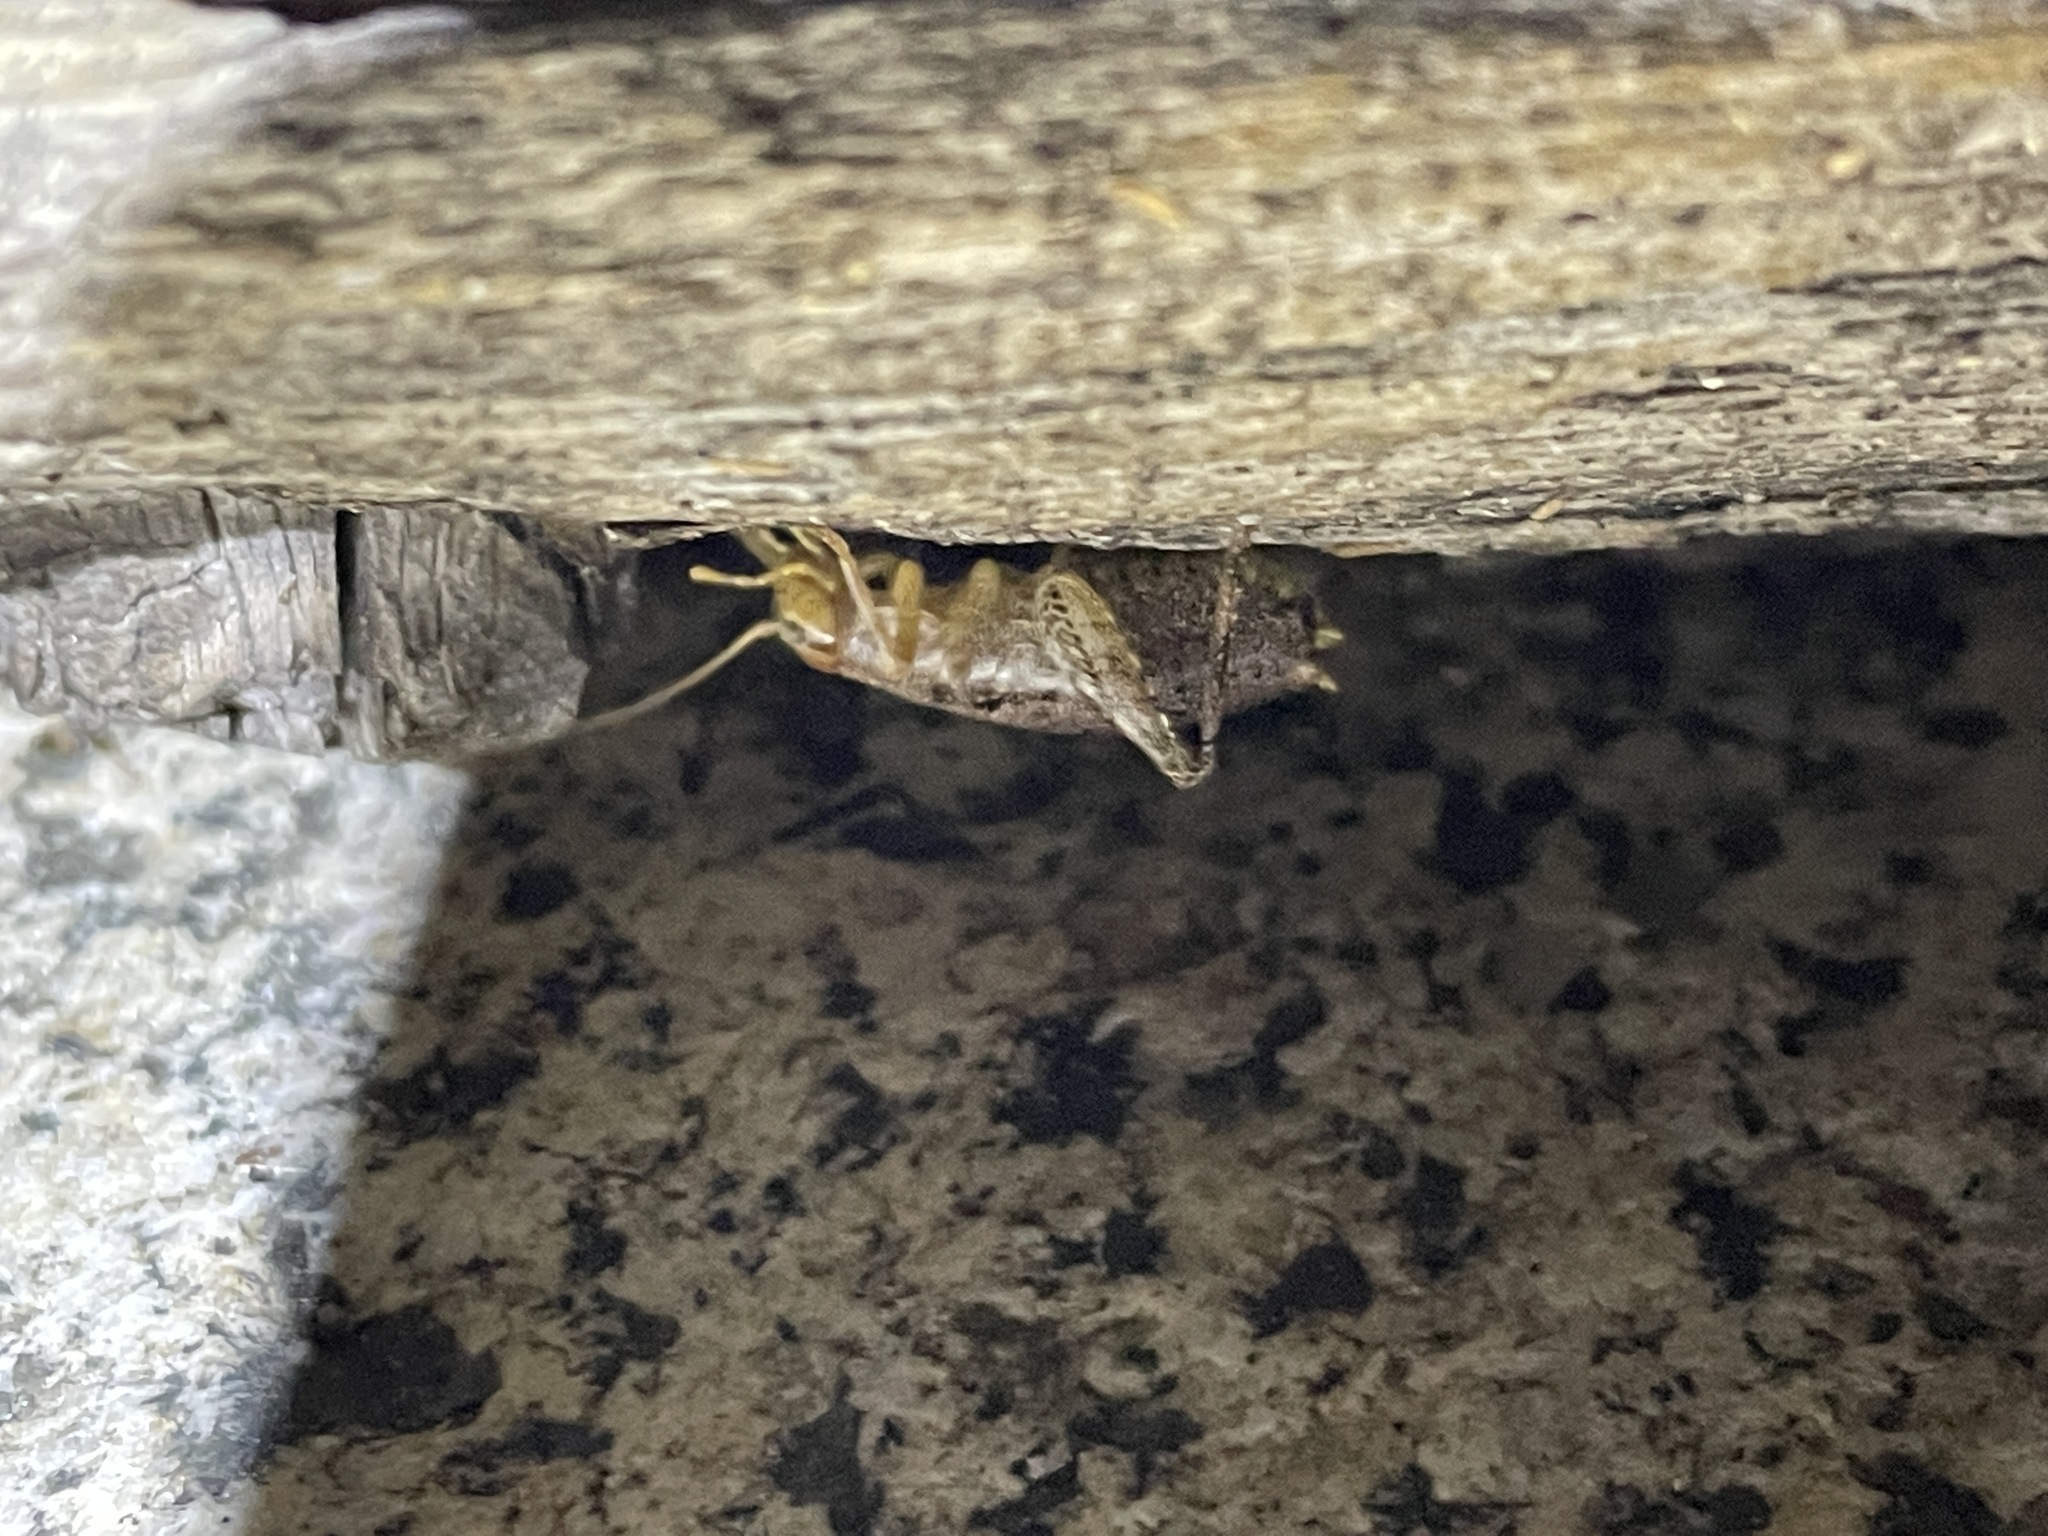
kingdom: Animalia
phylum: Arthropoda
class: Insecta
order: Orthoptera
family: Rhaphidophoridae
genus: Gammarotettix
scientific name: Gammarotettix bilobatus
